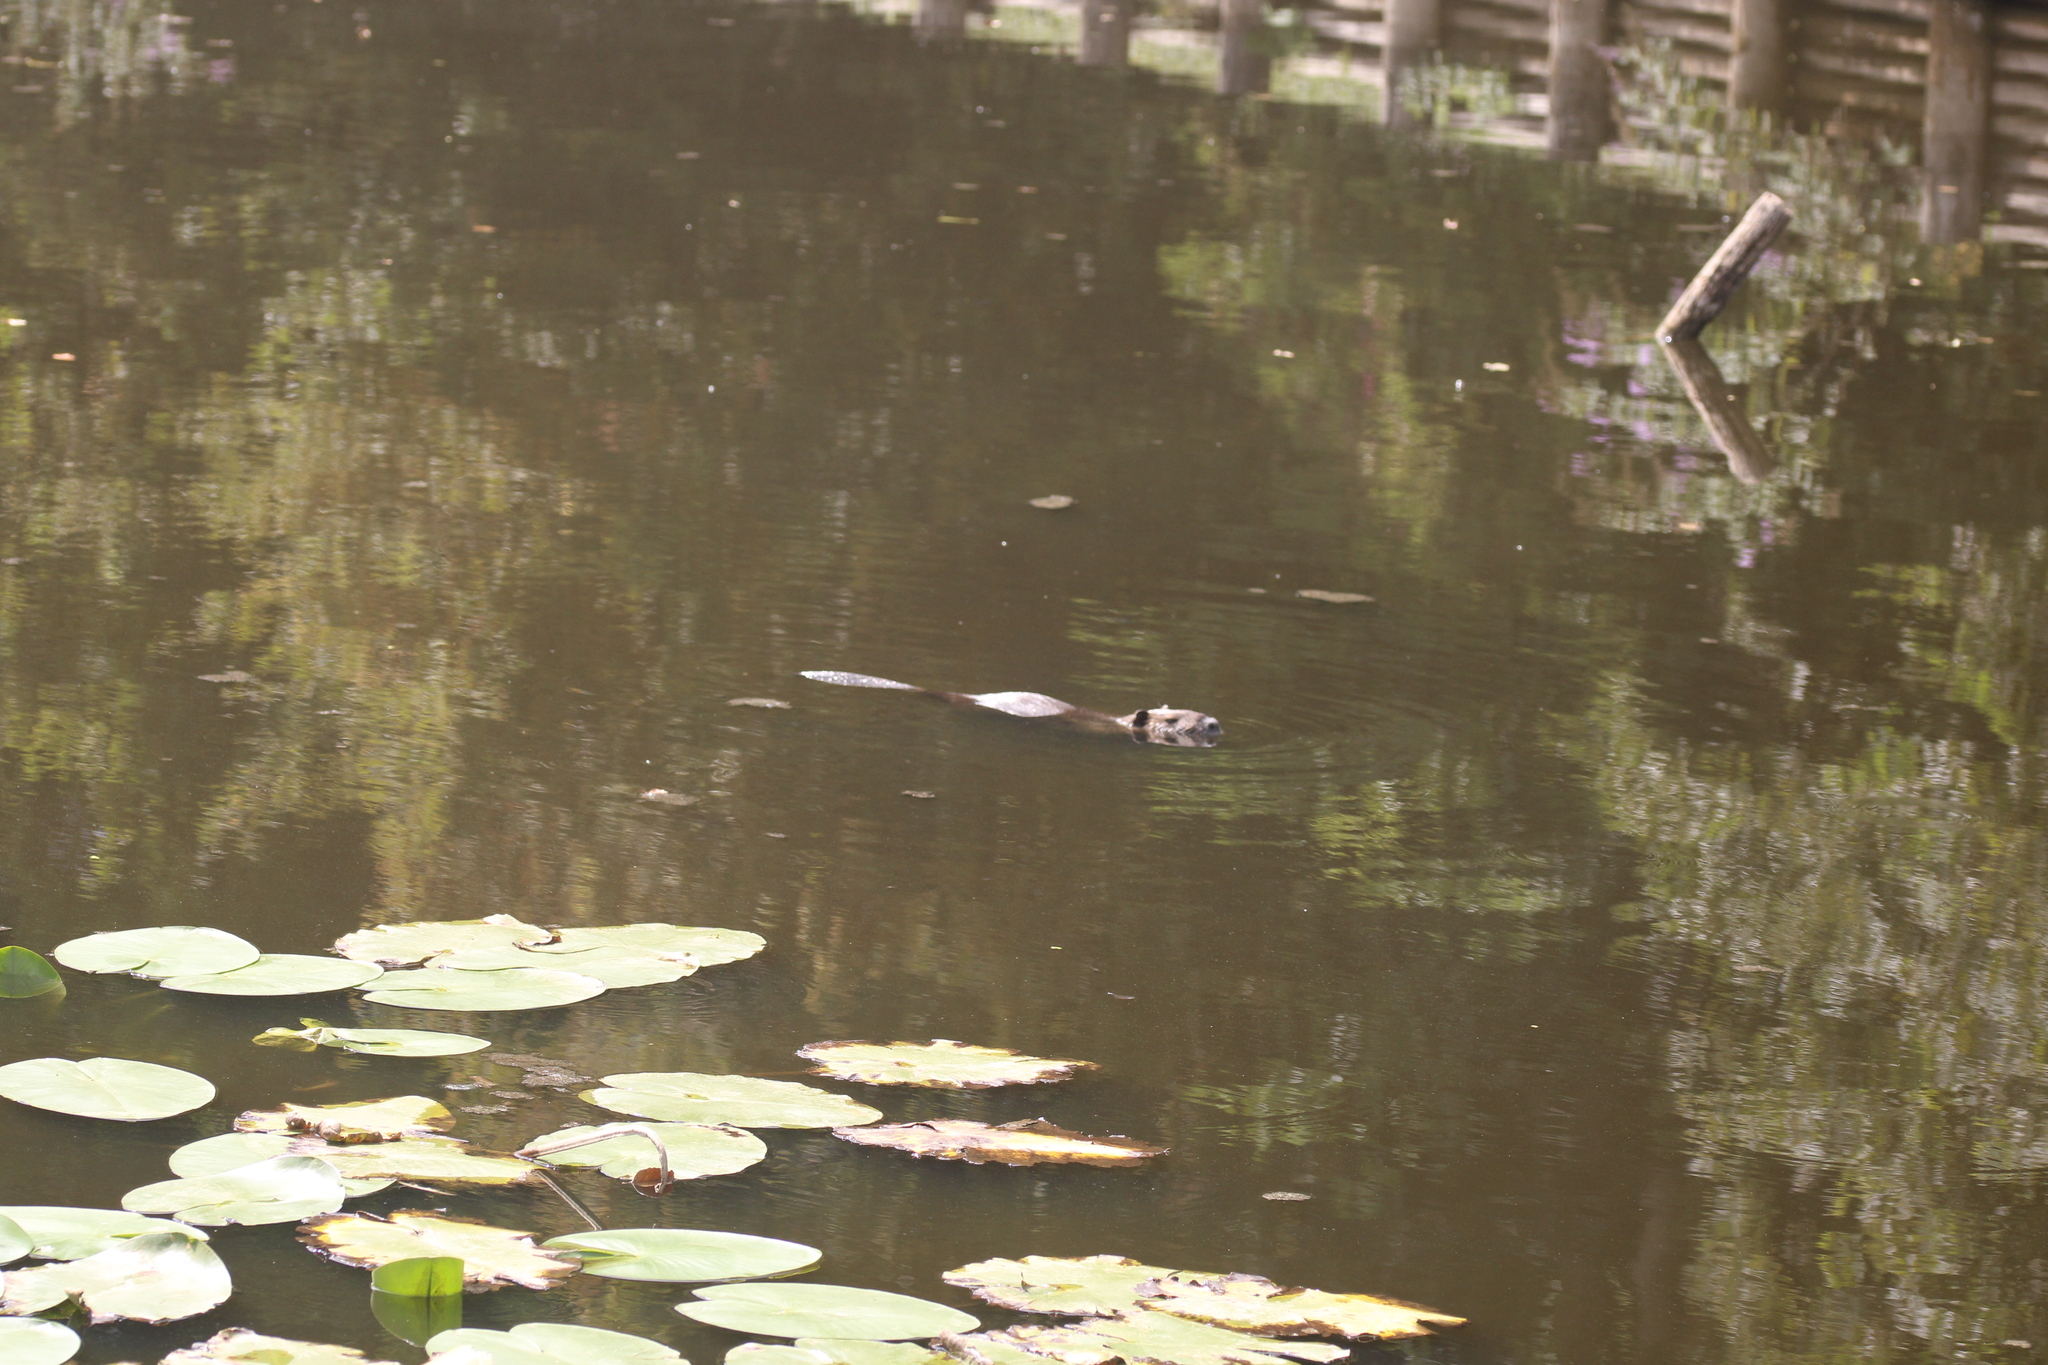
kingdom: Animalia
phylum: Chordata
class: Mammalia
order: Rodentia
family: Myocastoridae
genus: Myocastor
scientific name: Myocastor coypus
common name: Coypu
